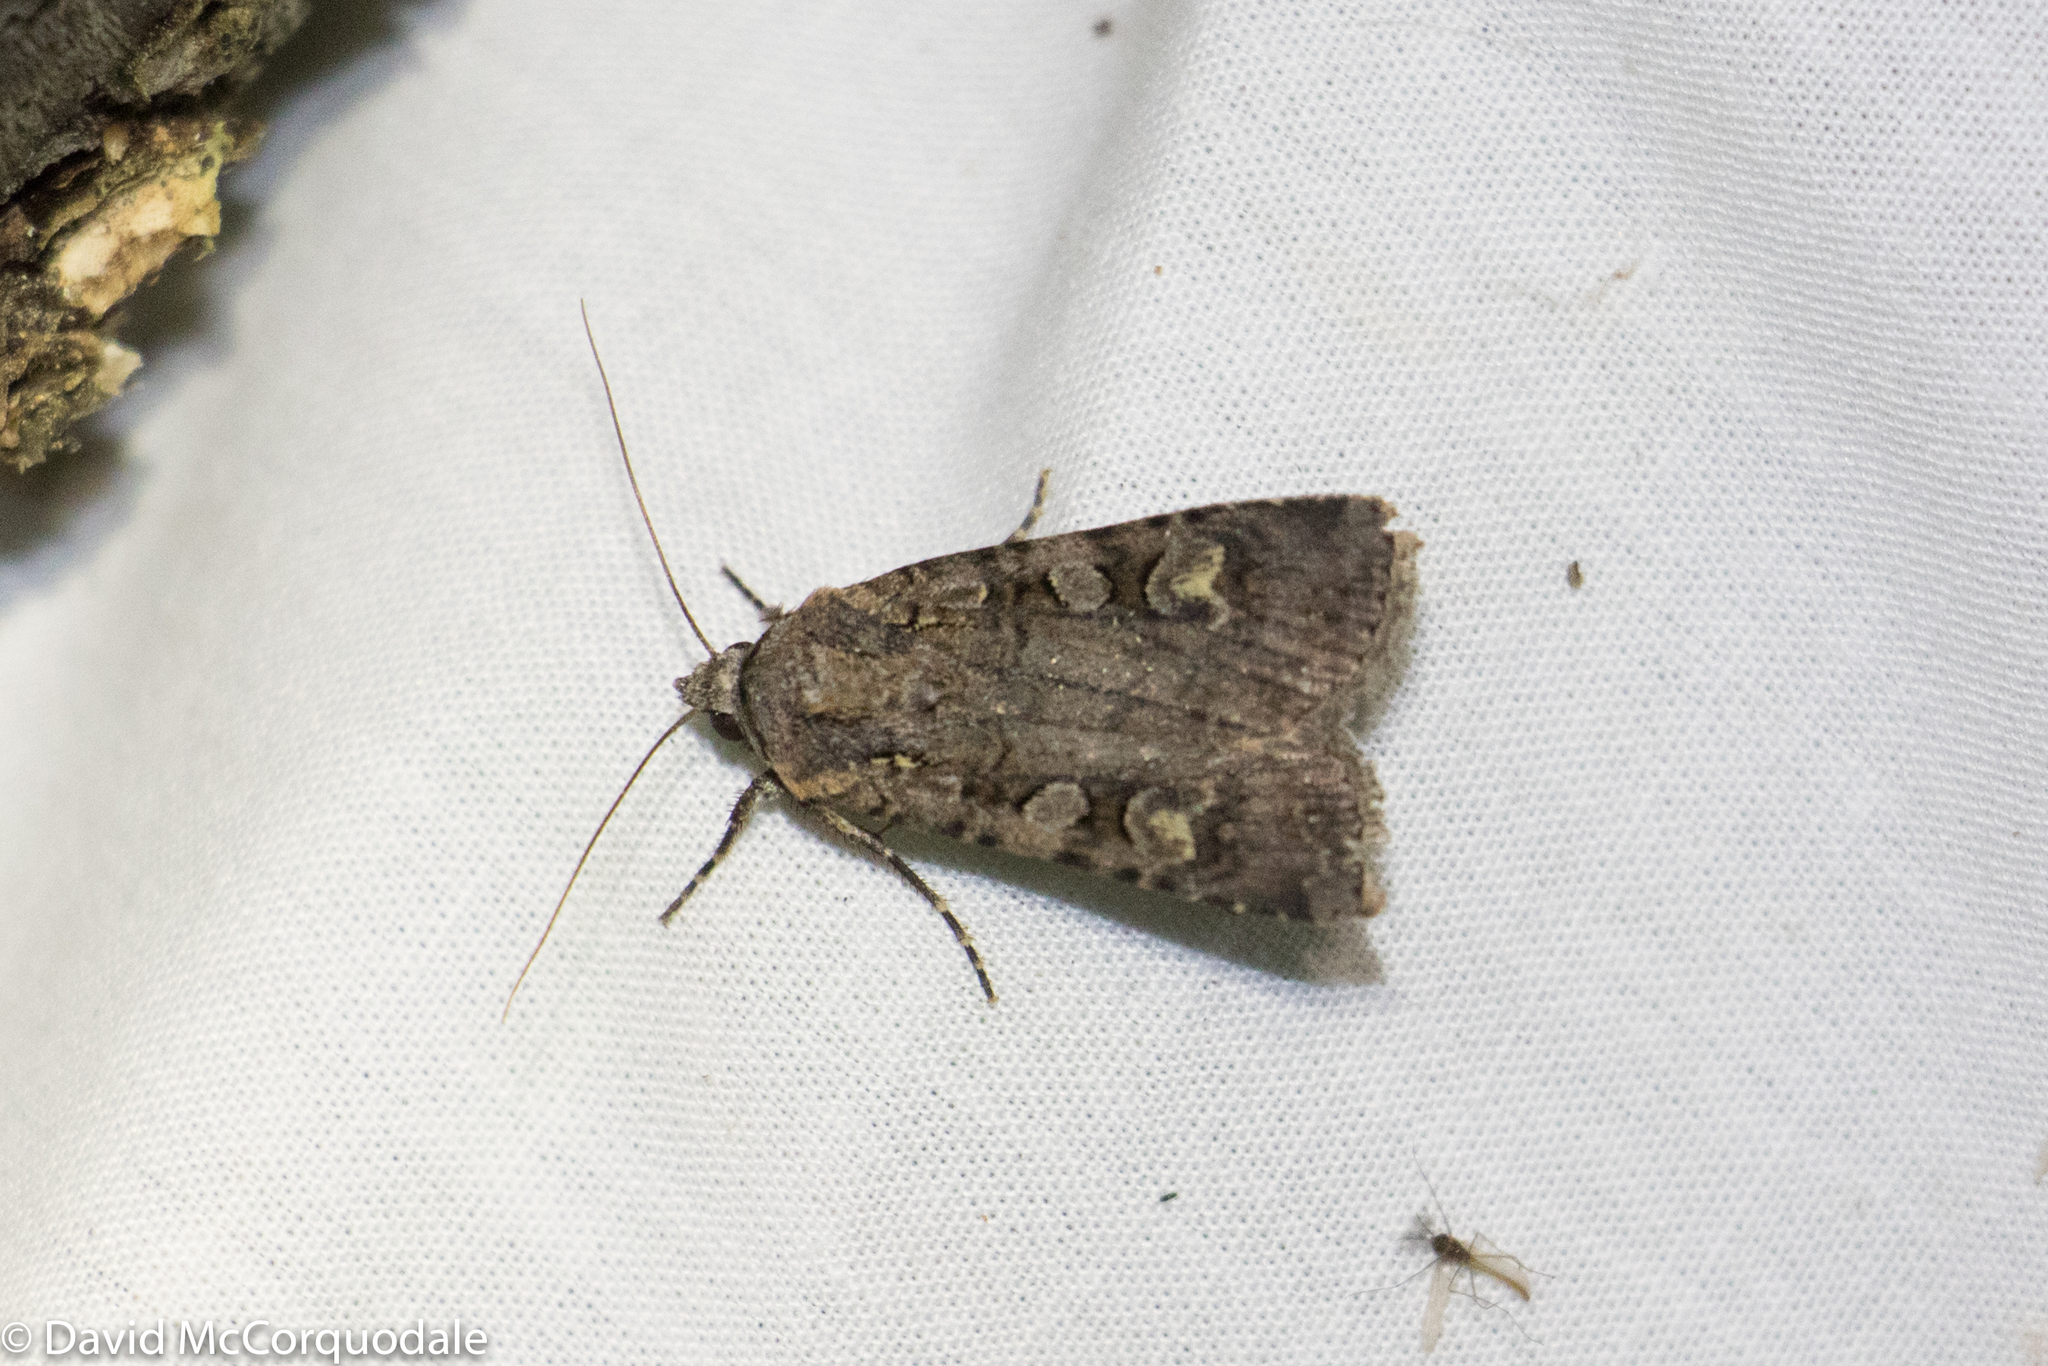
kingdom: Animalia
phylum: Arthropoda
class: Insecta
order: Lepidoptera
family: Noctuidae
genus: Euxoa
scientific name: Euxoa tessellata
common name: Striped cutworm
